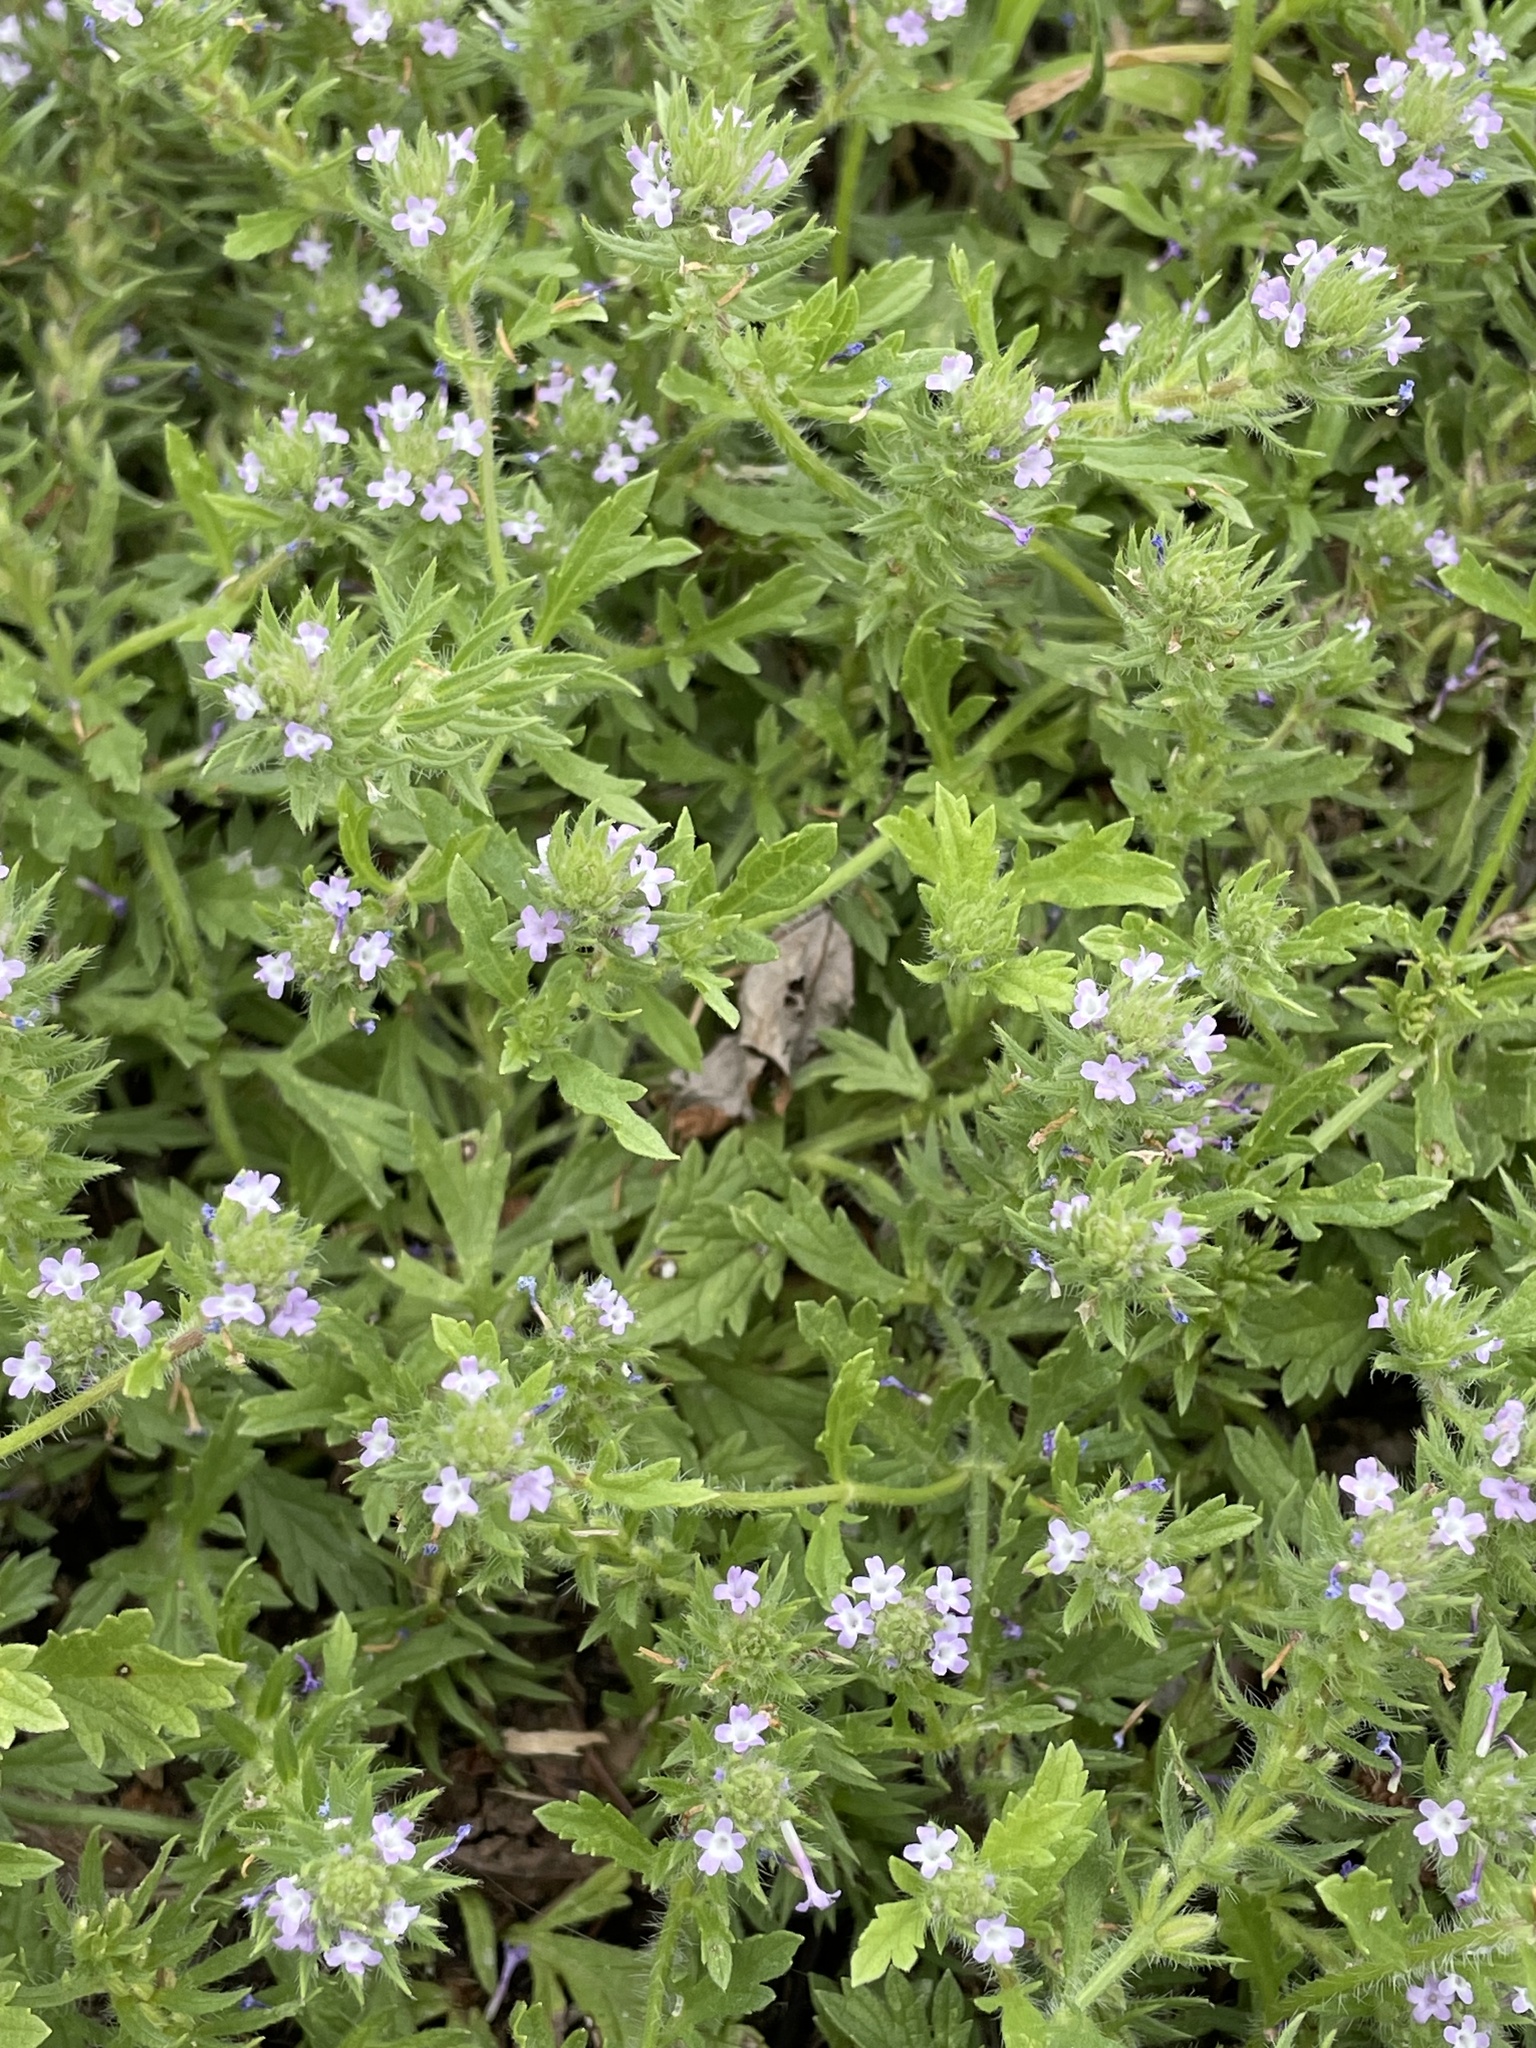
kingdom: Plantae
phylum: Tracheophyta
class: Magnoliopsida
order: Lamiales
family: Verbenaceae
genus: Verbena
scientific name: Verbena bracteata
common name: Bracted vervain
